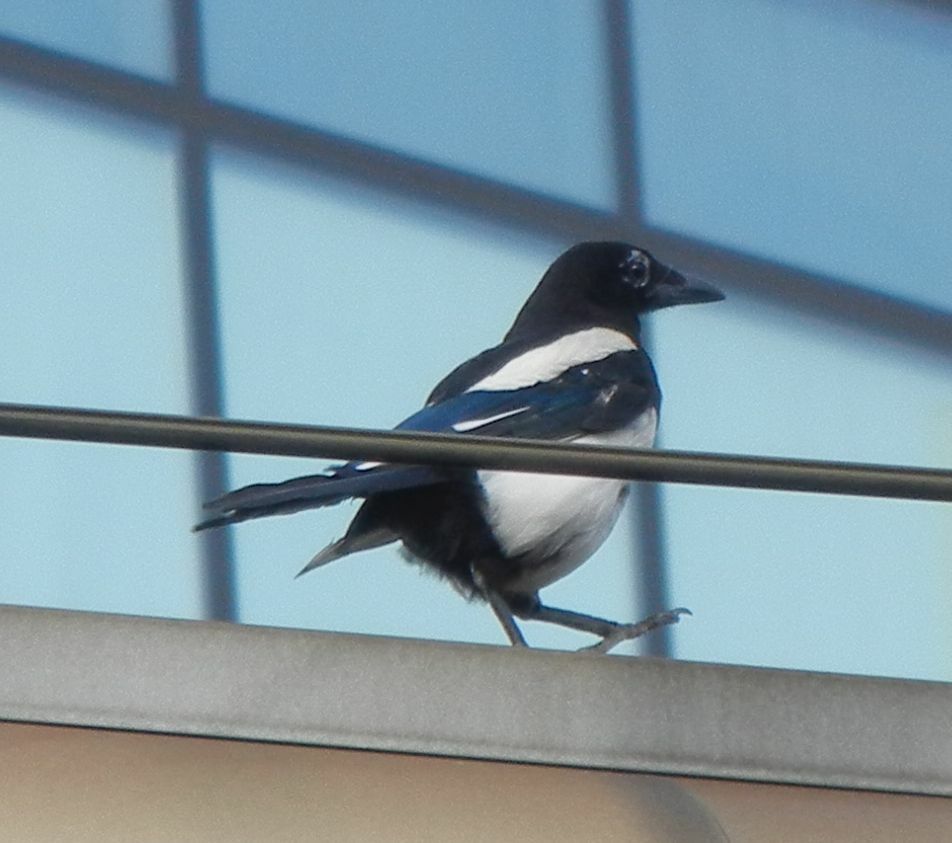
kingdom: Animalia
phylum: Chordata
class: Aves
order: Passeriformes
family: Corvidae
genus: Pica
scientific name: Pica pica
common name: Eurasian magpie
